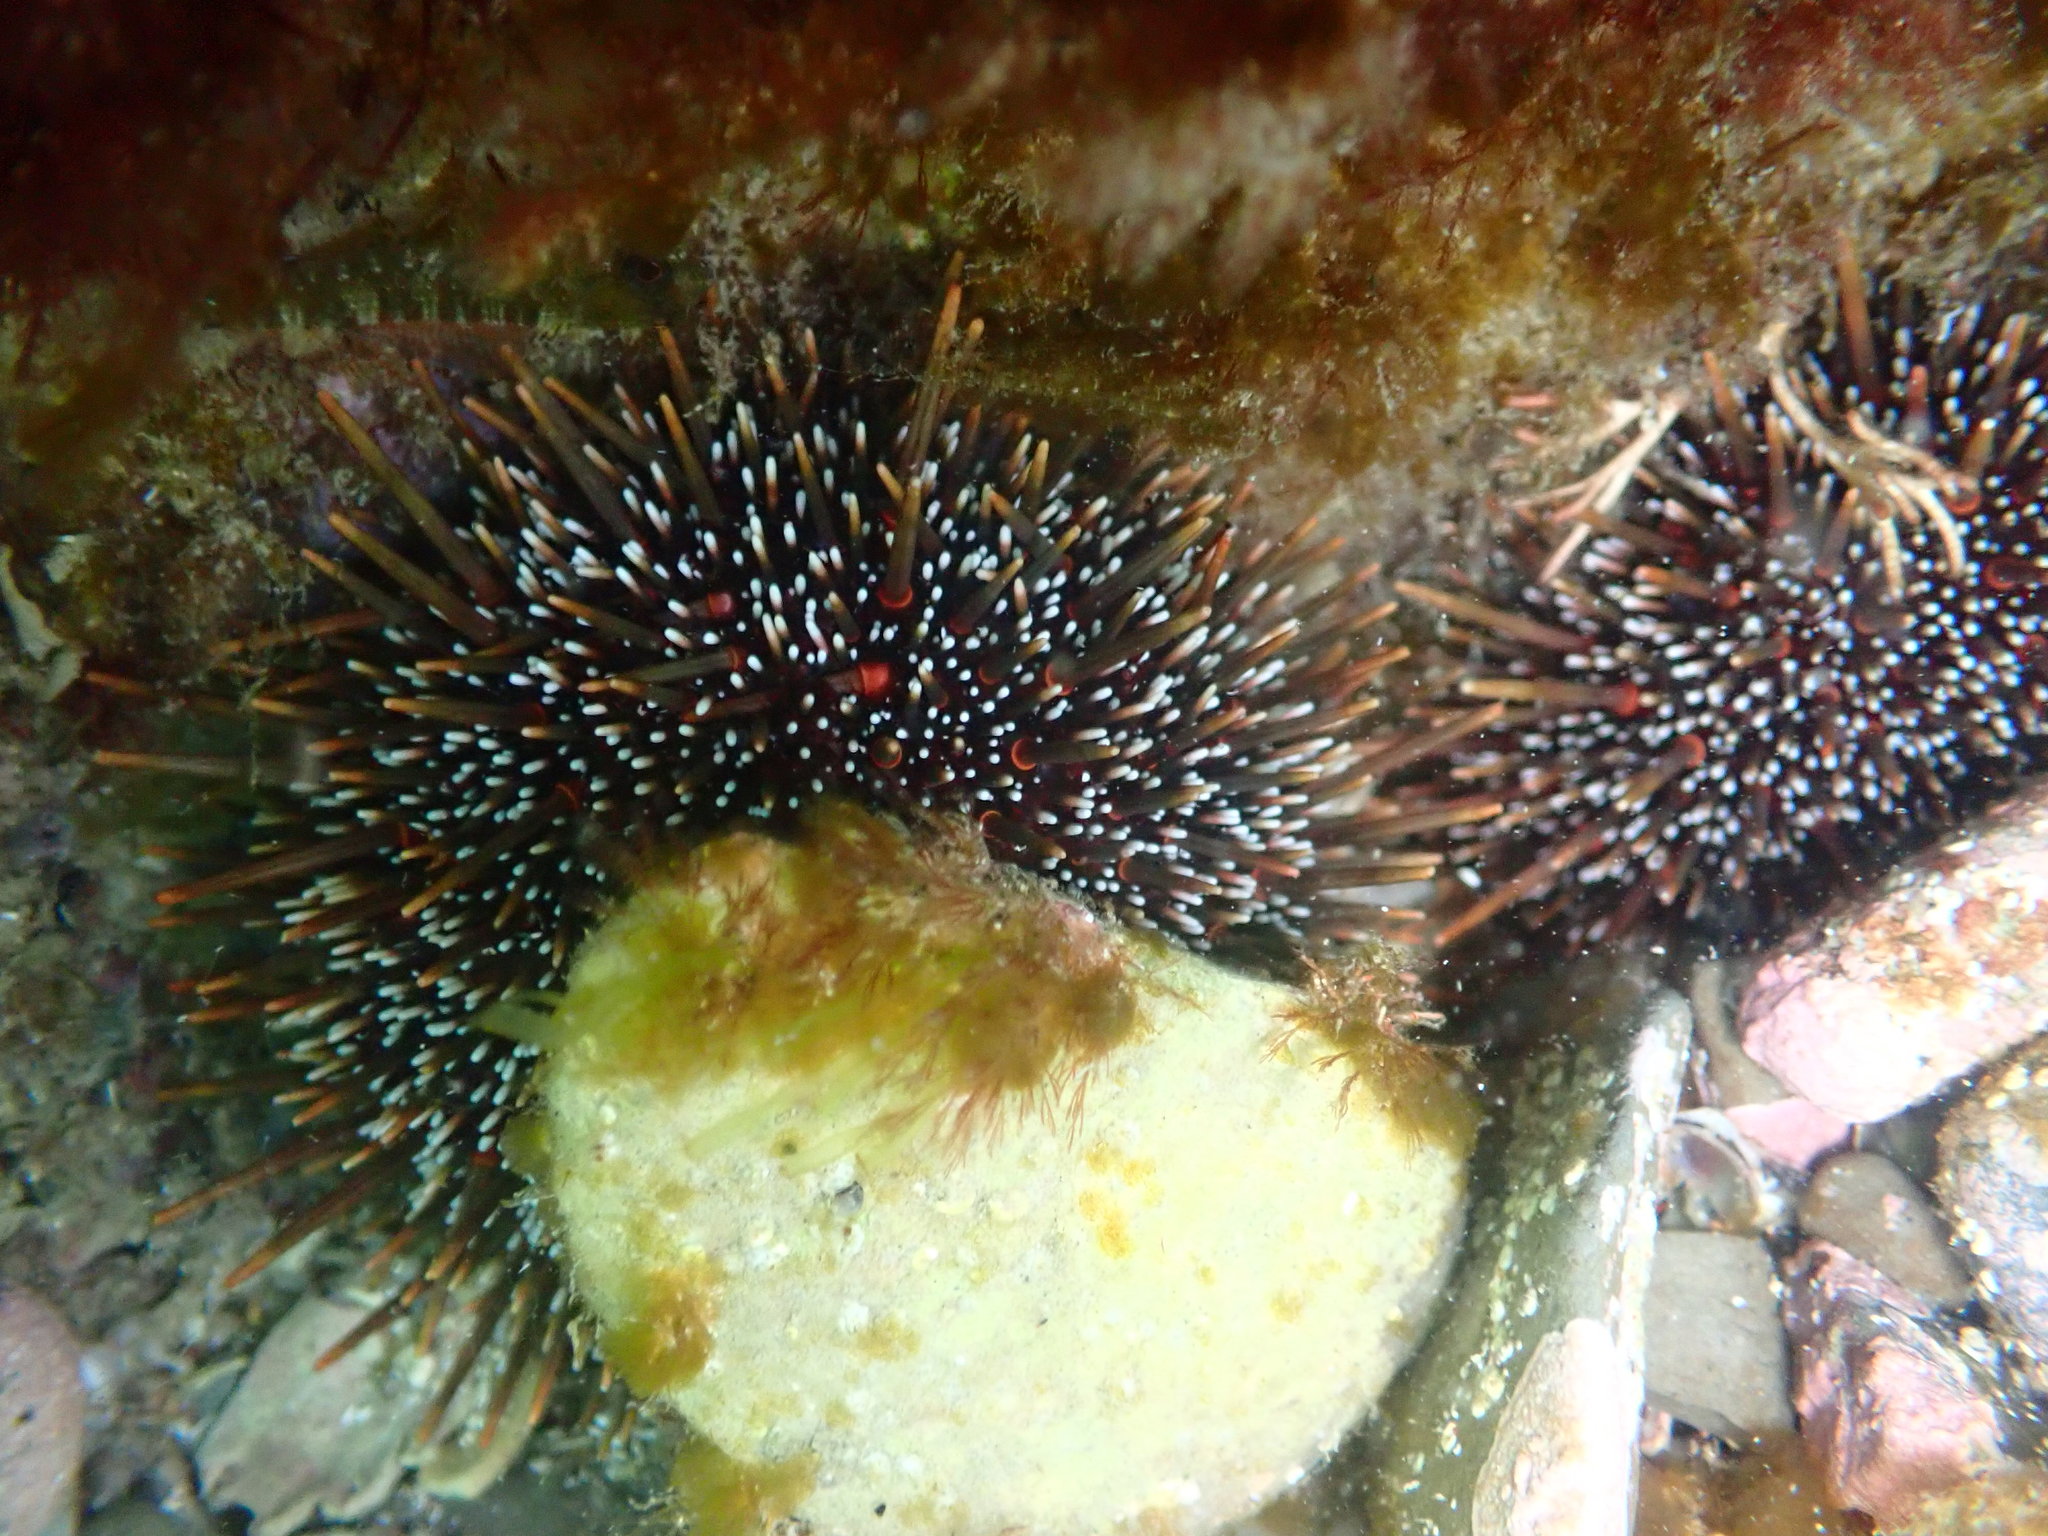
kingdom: Animalia
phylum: Echinodermata
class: Echinoidea
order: Camarodonta
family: Echinometridae
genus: Evechinus
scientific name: Evechinus chloroticus
